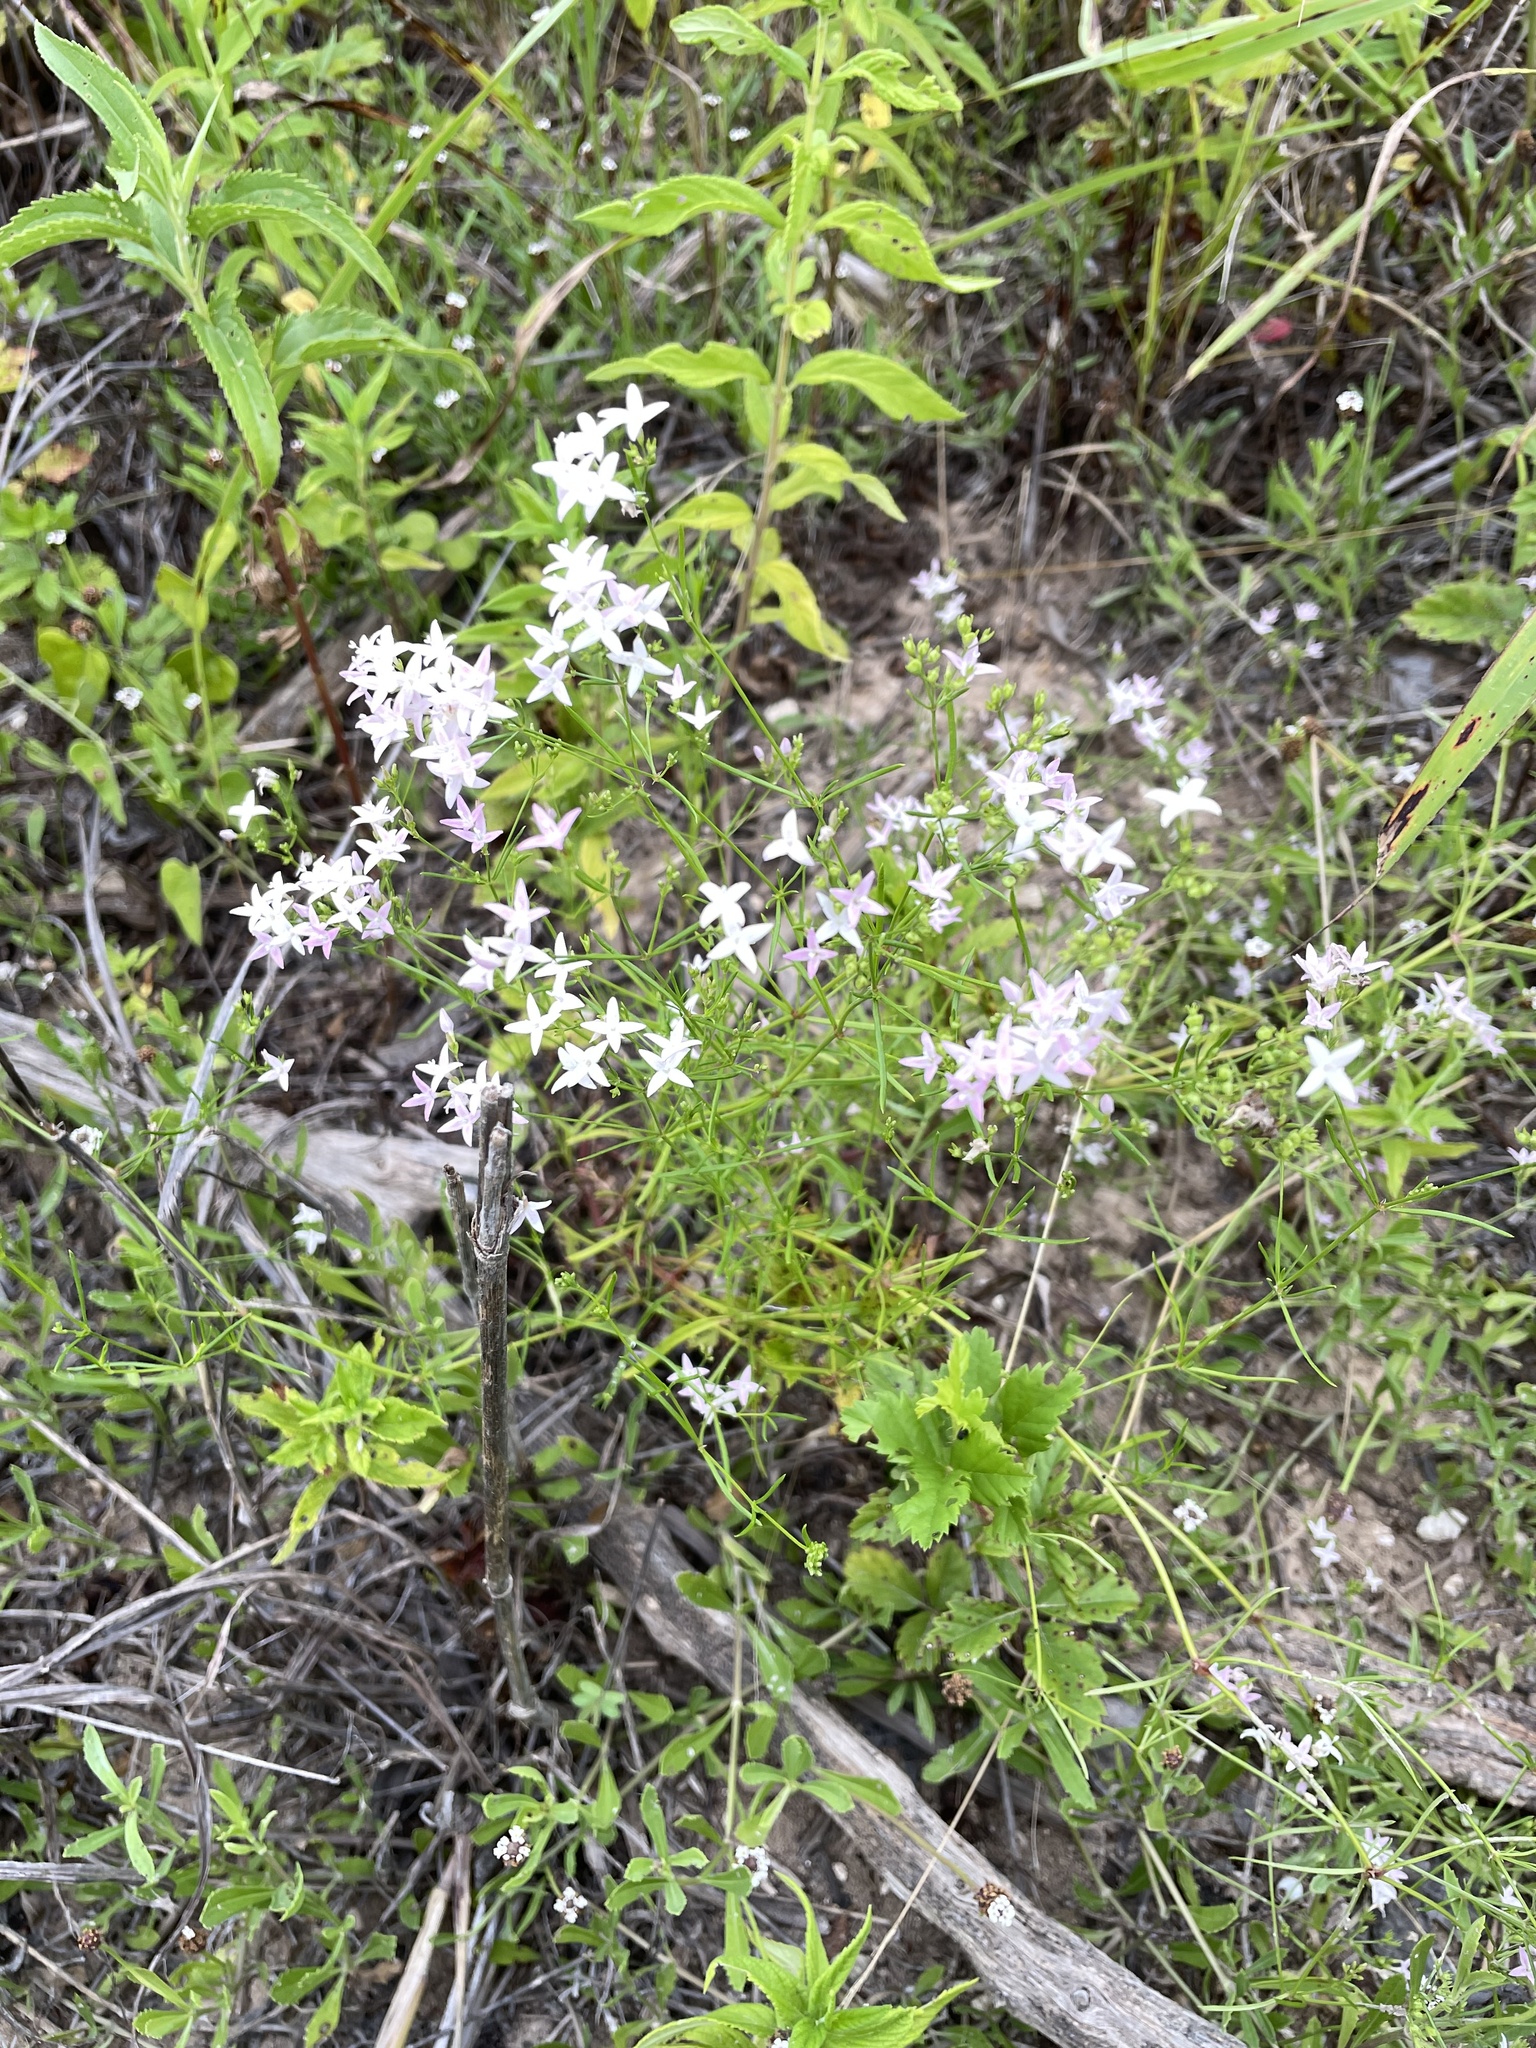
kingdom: Plantae
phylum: Tracheophyta
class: Magnoliopsida
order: Gentianales
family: Rubiaceae
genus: Stenaria
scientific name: Stenaria nigricans
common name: Diamondflowers
